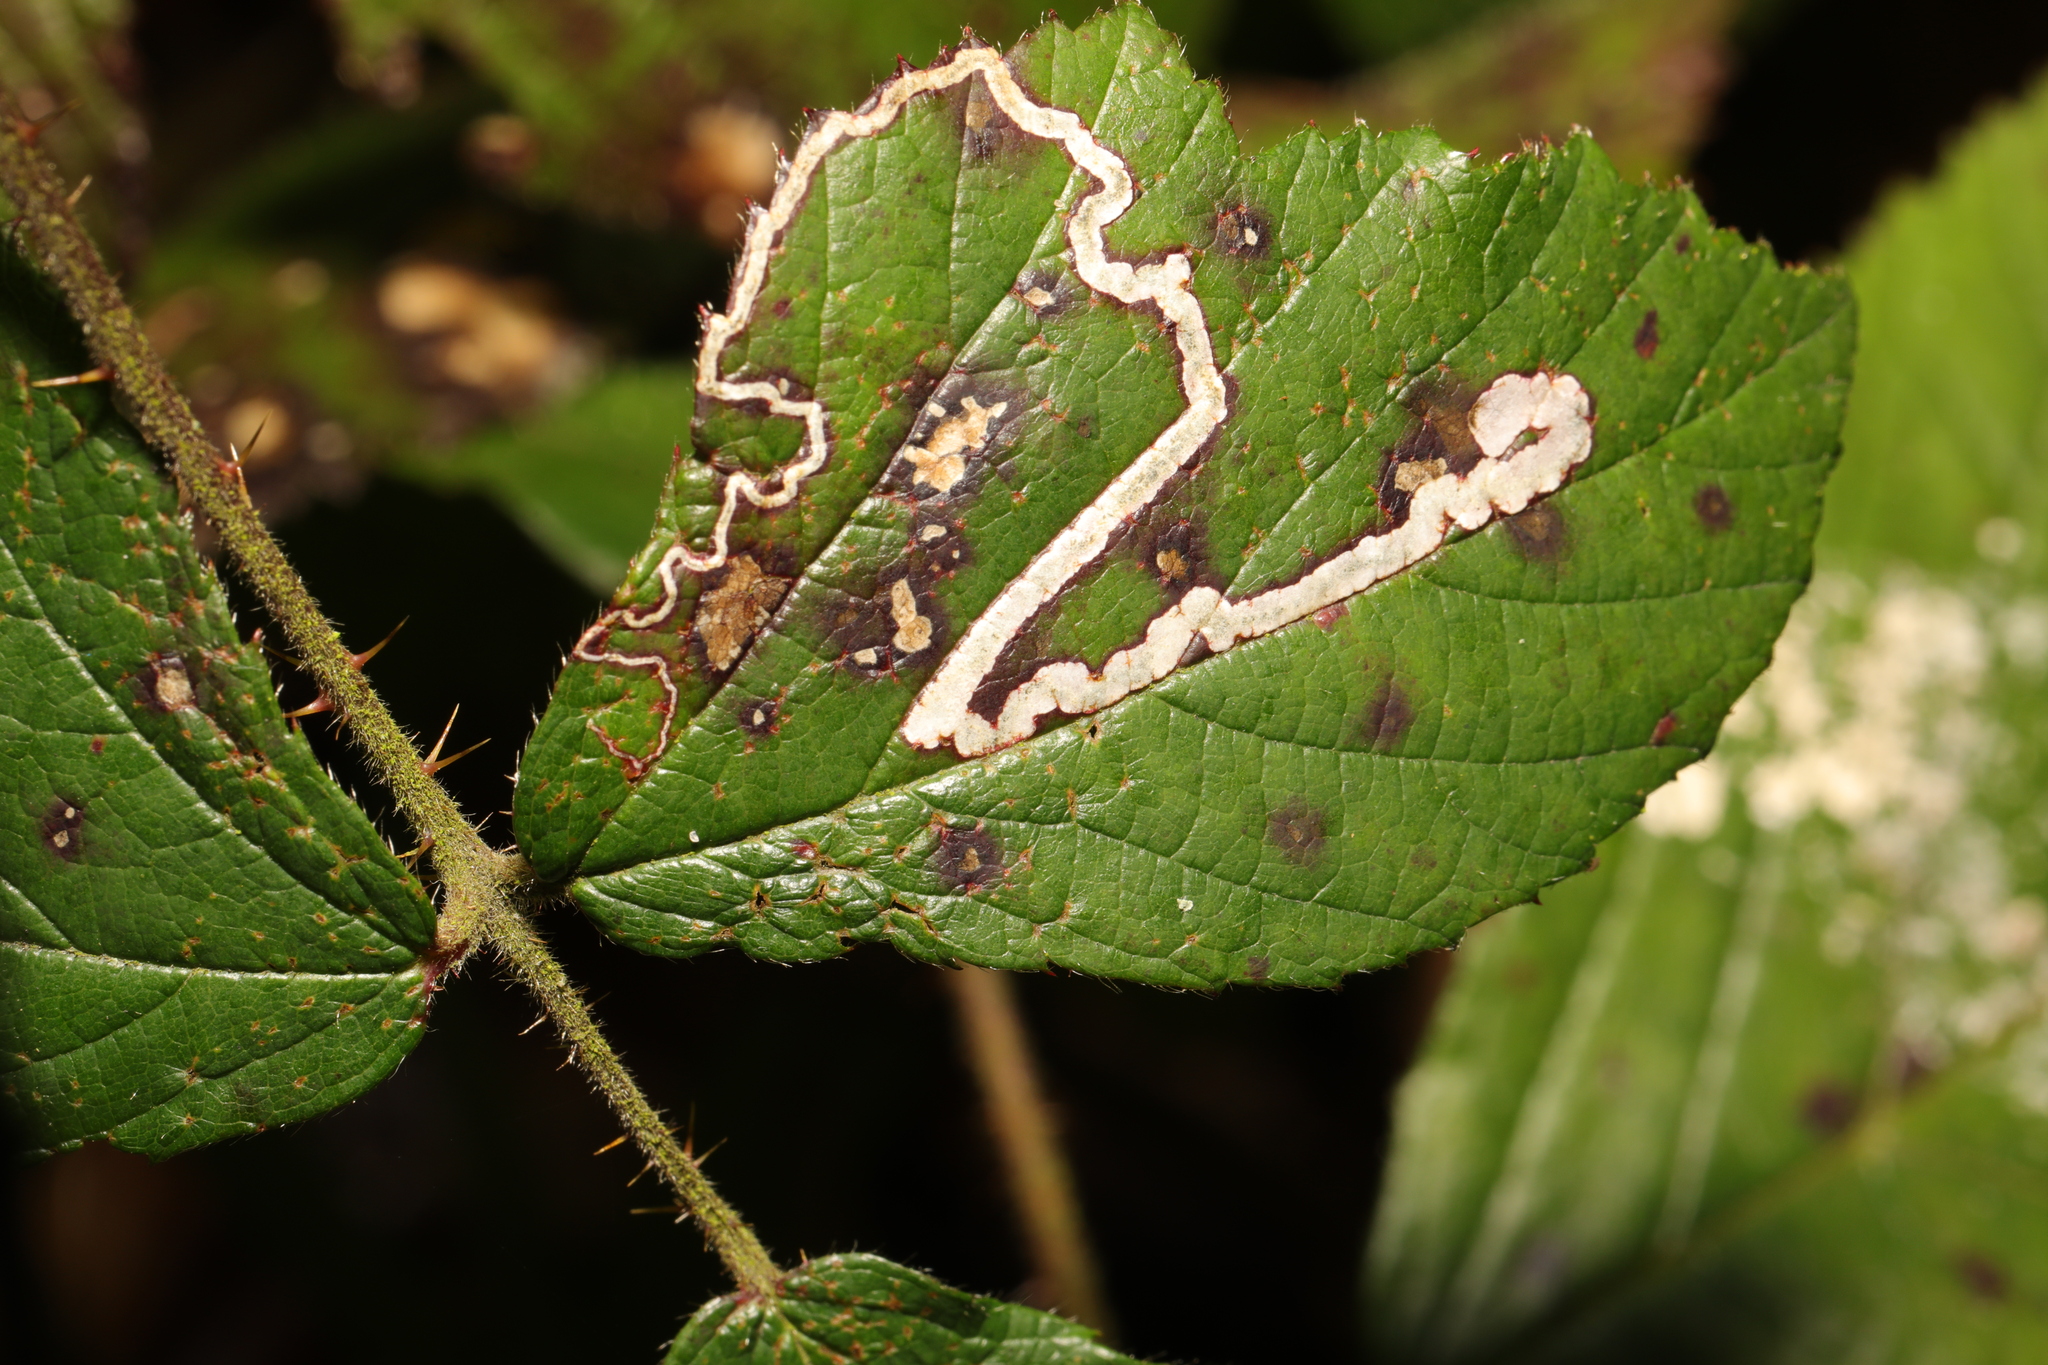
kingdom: Animalia
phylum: Arthropoda
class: Insecta
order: Lepidoptera
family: Nepticulidae
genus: Stigmella
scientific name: Stigmella aurella
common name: Golden pigmy
